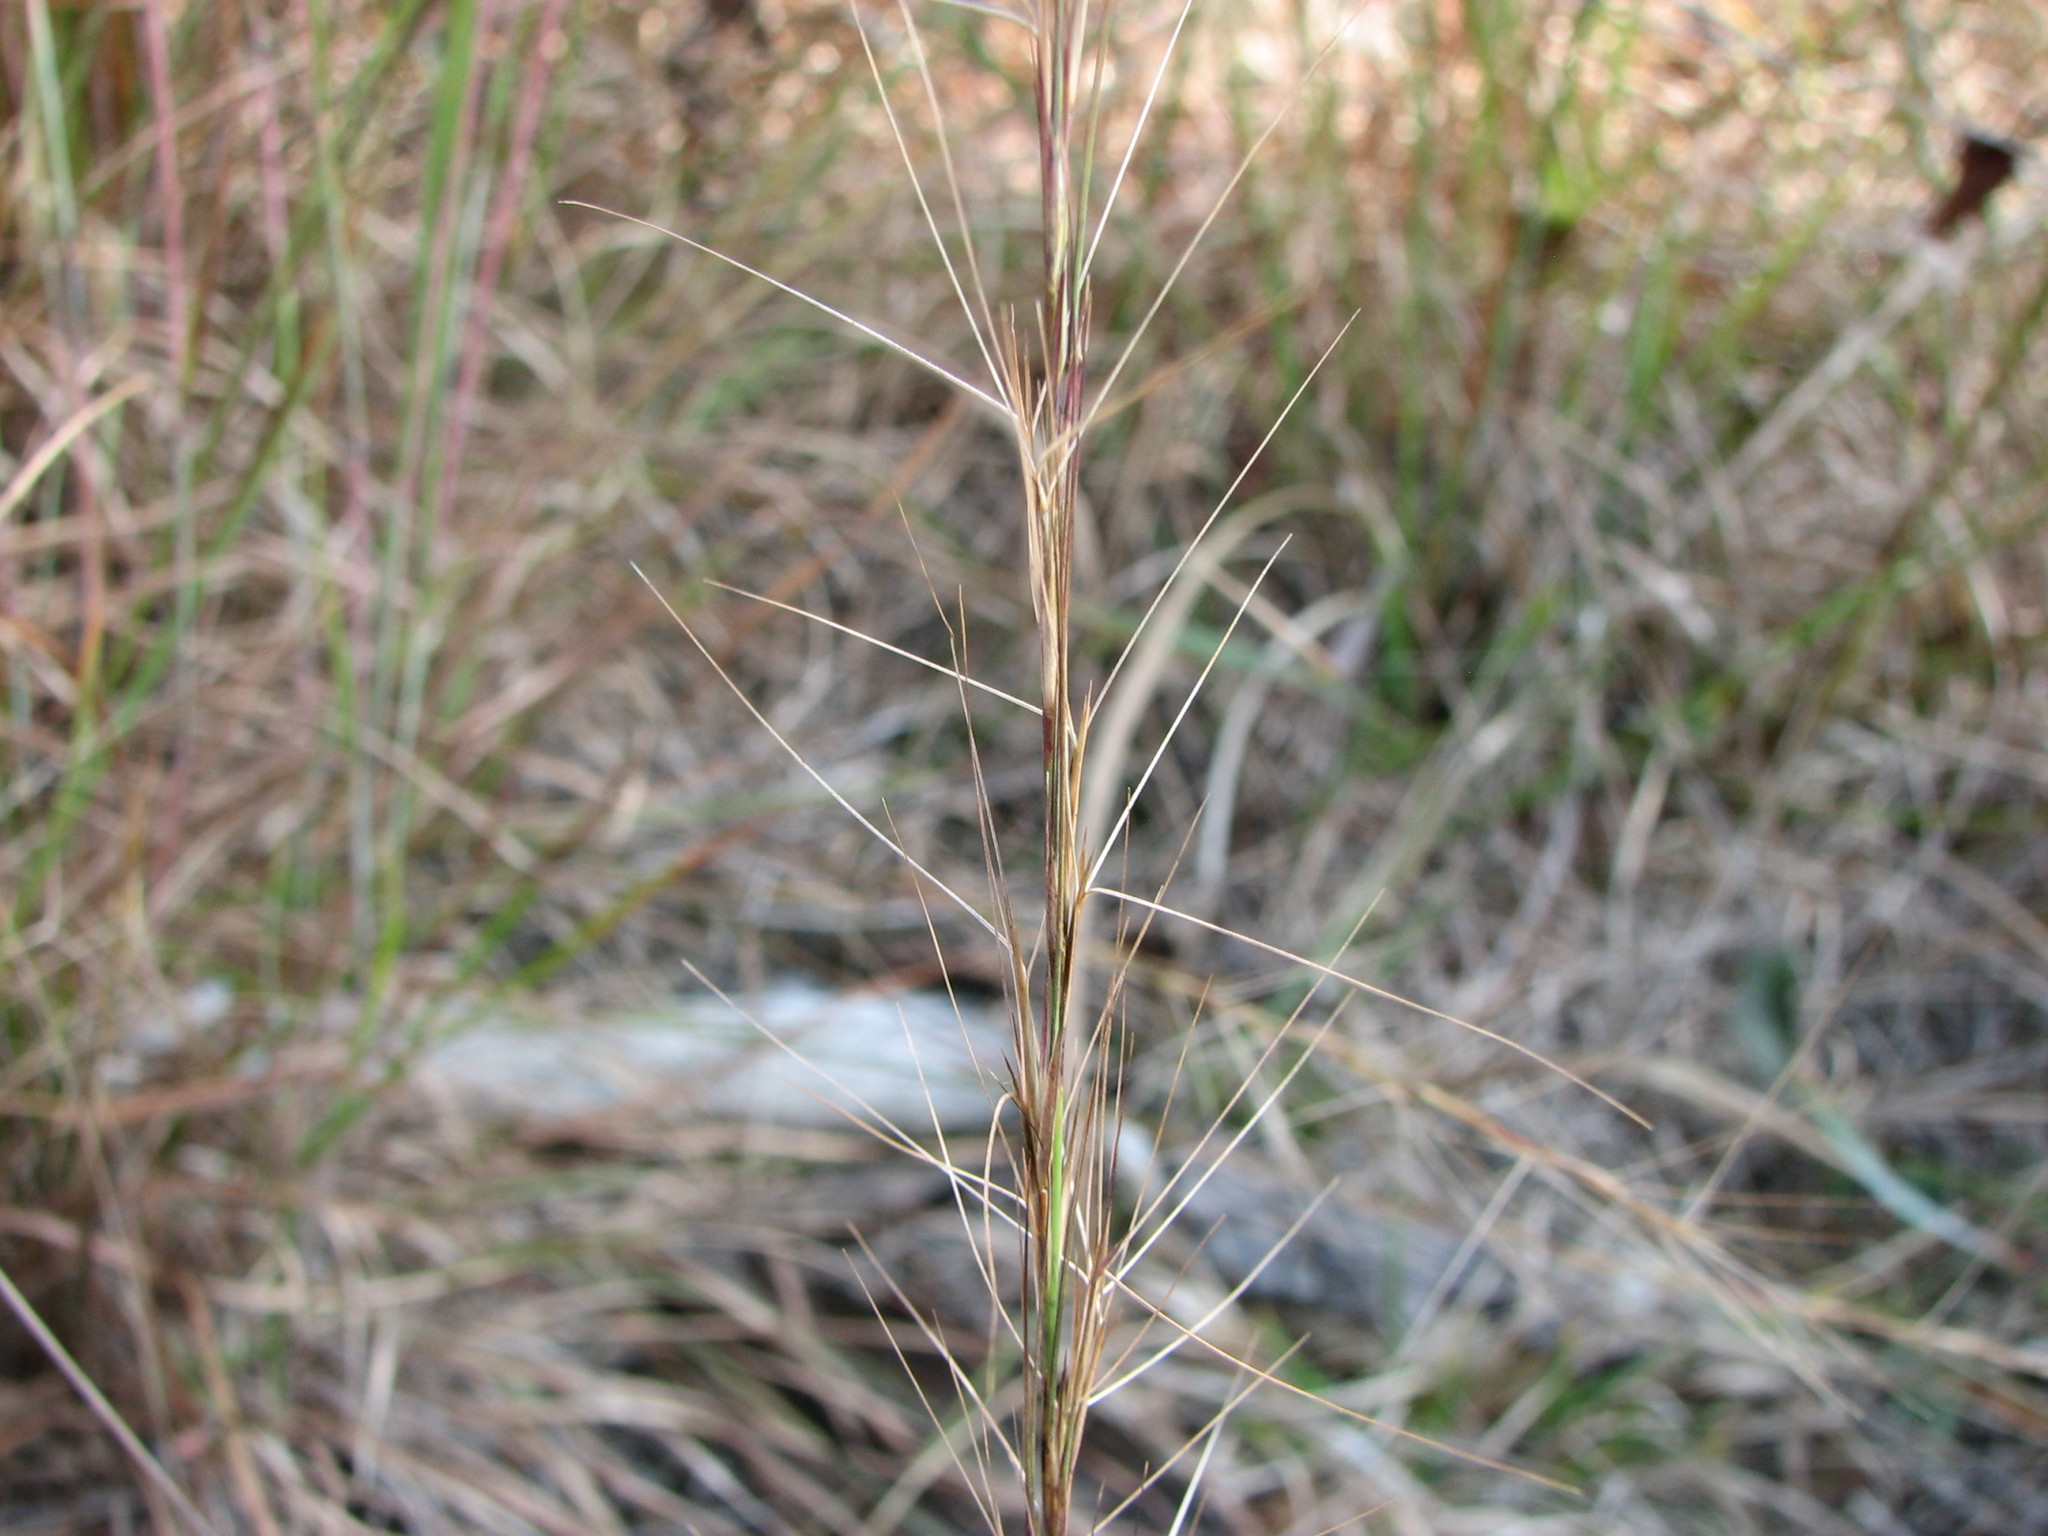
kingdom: Plantae
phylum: Tracheophyta
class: Liliopsida
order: Poales
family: Poaceae
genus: Aristida
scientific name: Aristida purpurascens
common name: Arrow-feather
